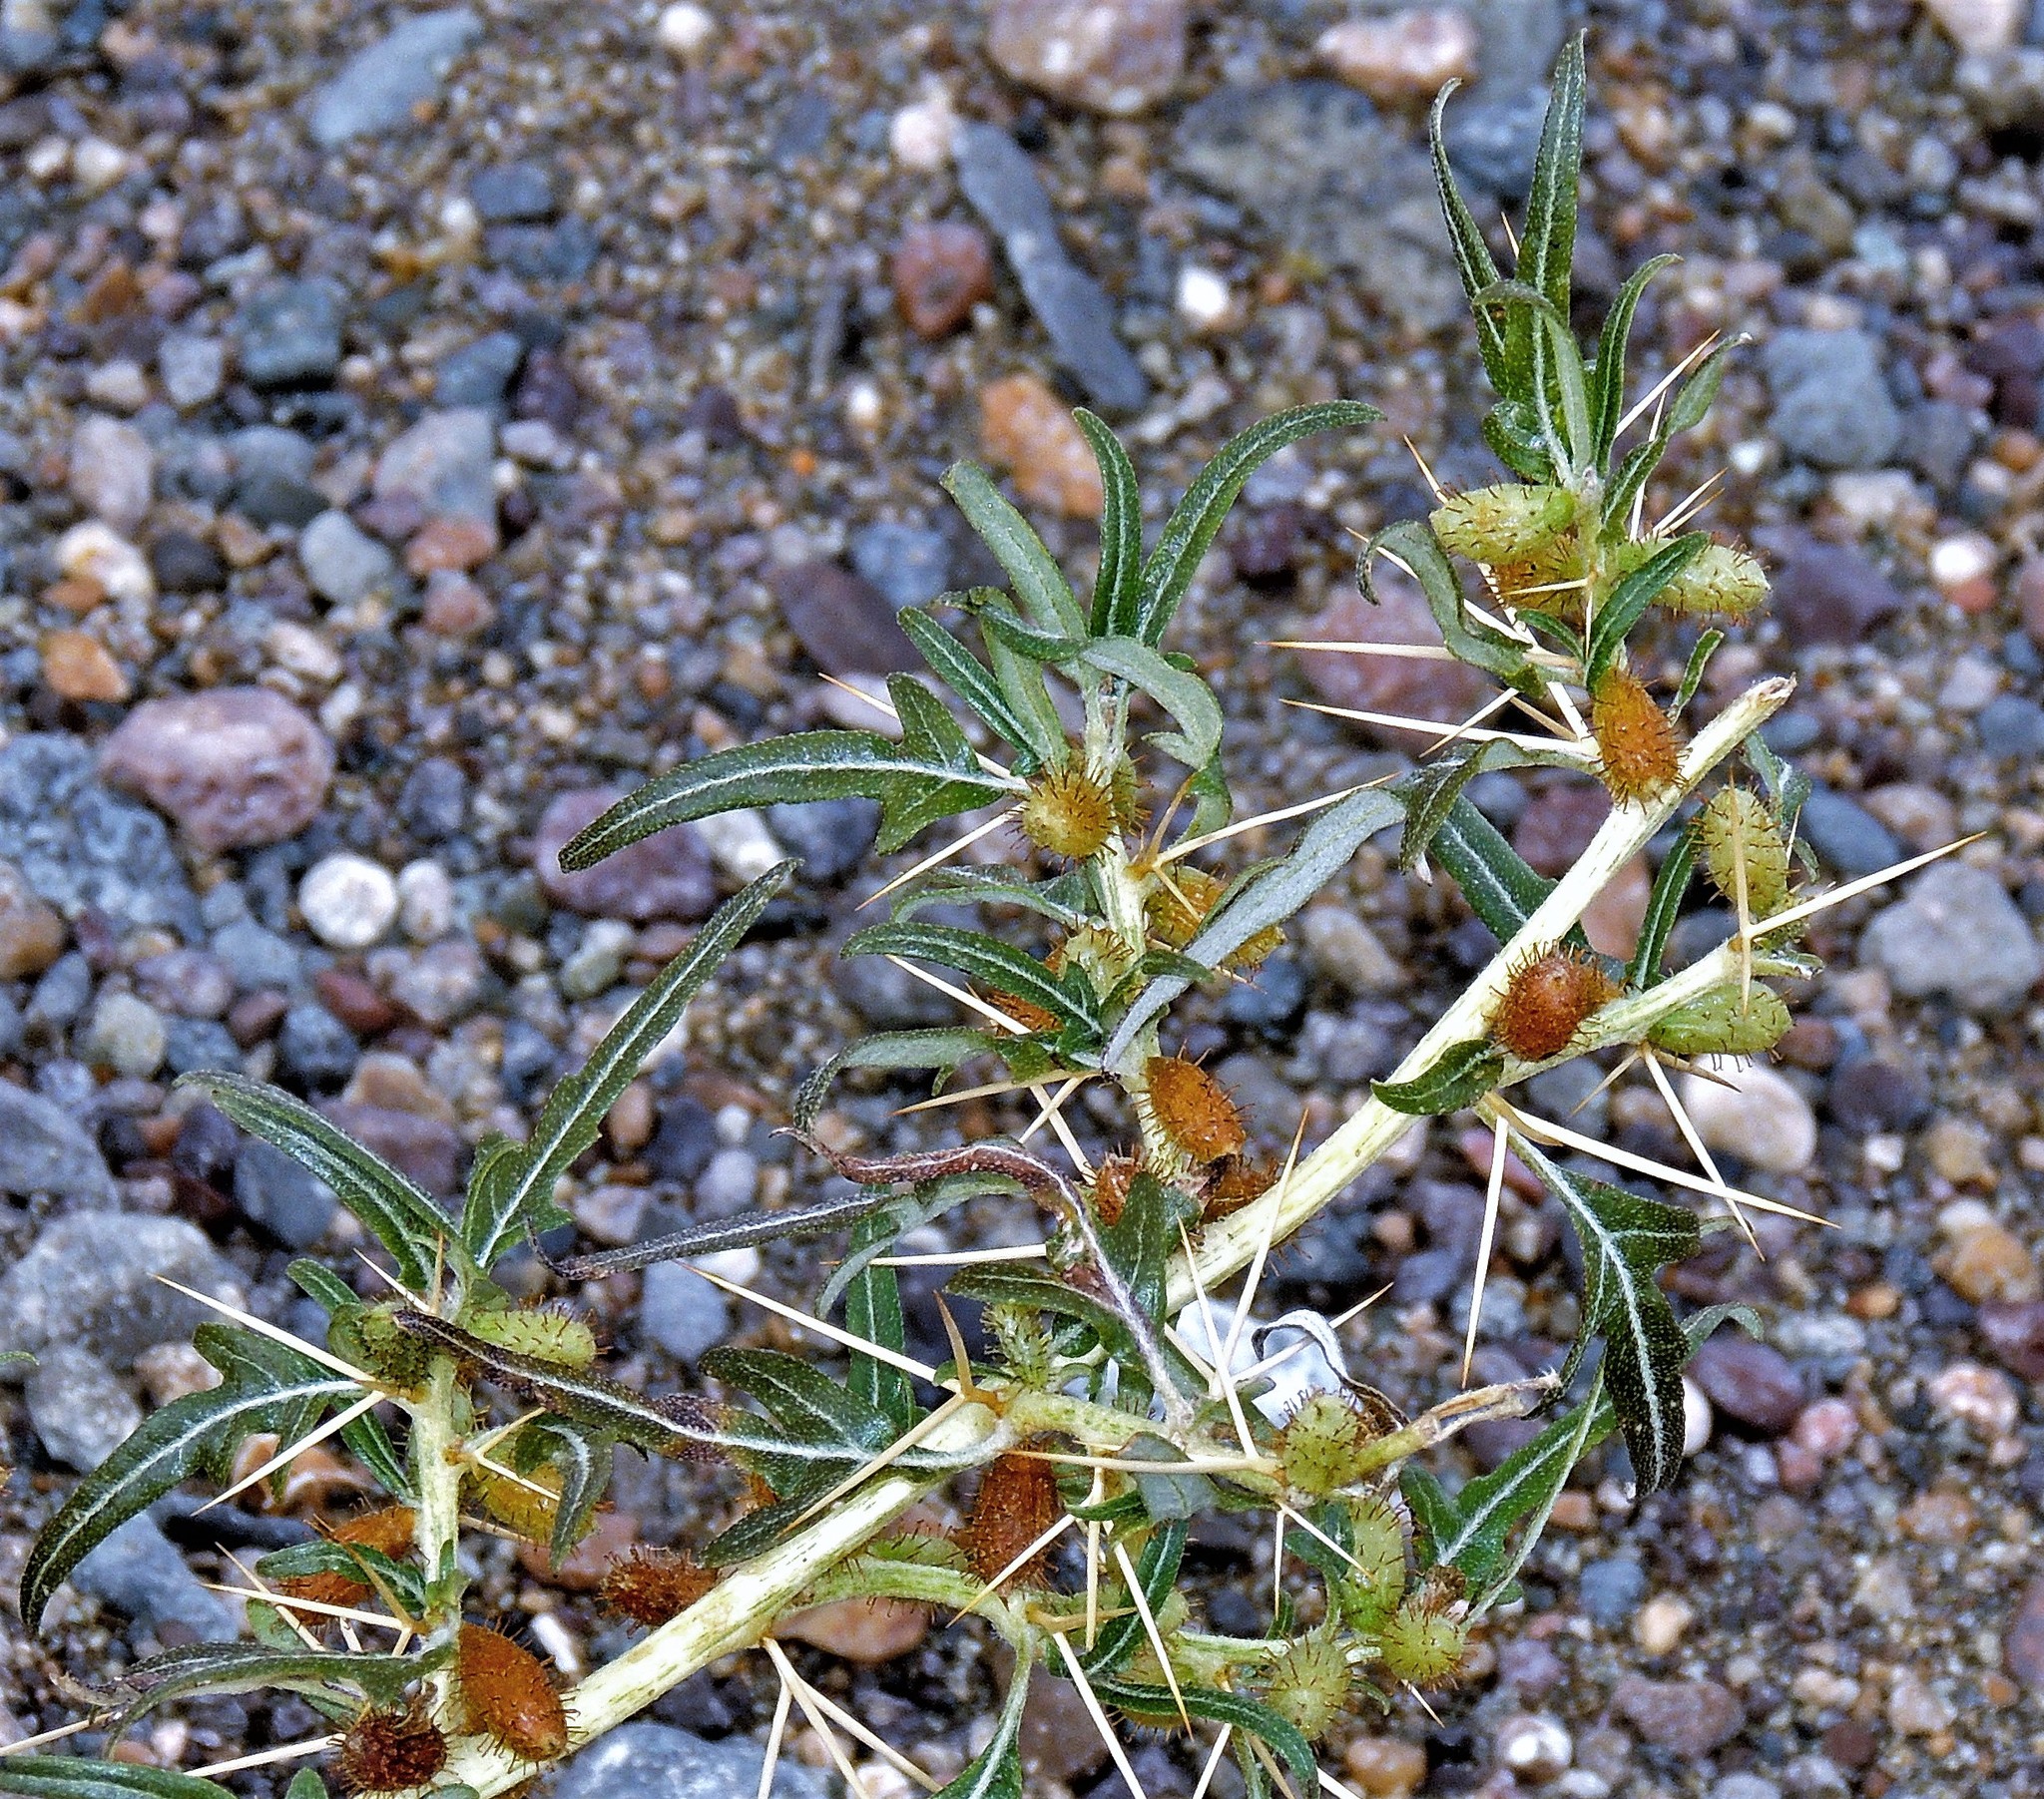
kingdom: Plantae
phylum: Tracheophyta
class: Magnoliopsida
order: Asterales
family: Asteraceae
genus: Xanthium
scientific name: Xanthium spinosum
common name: Spiny cocklebur
